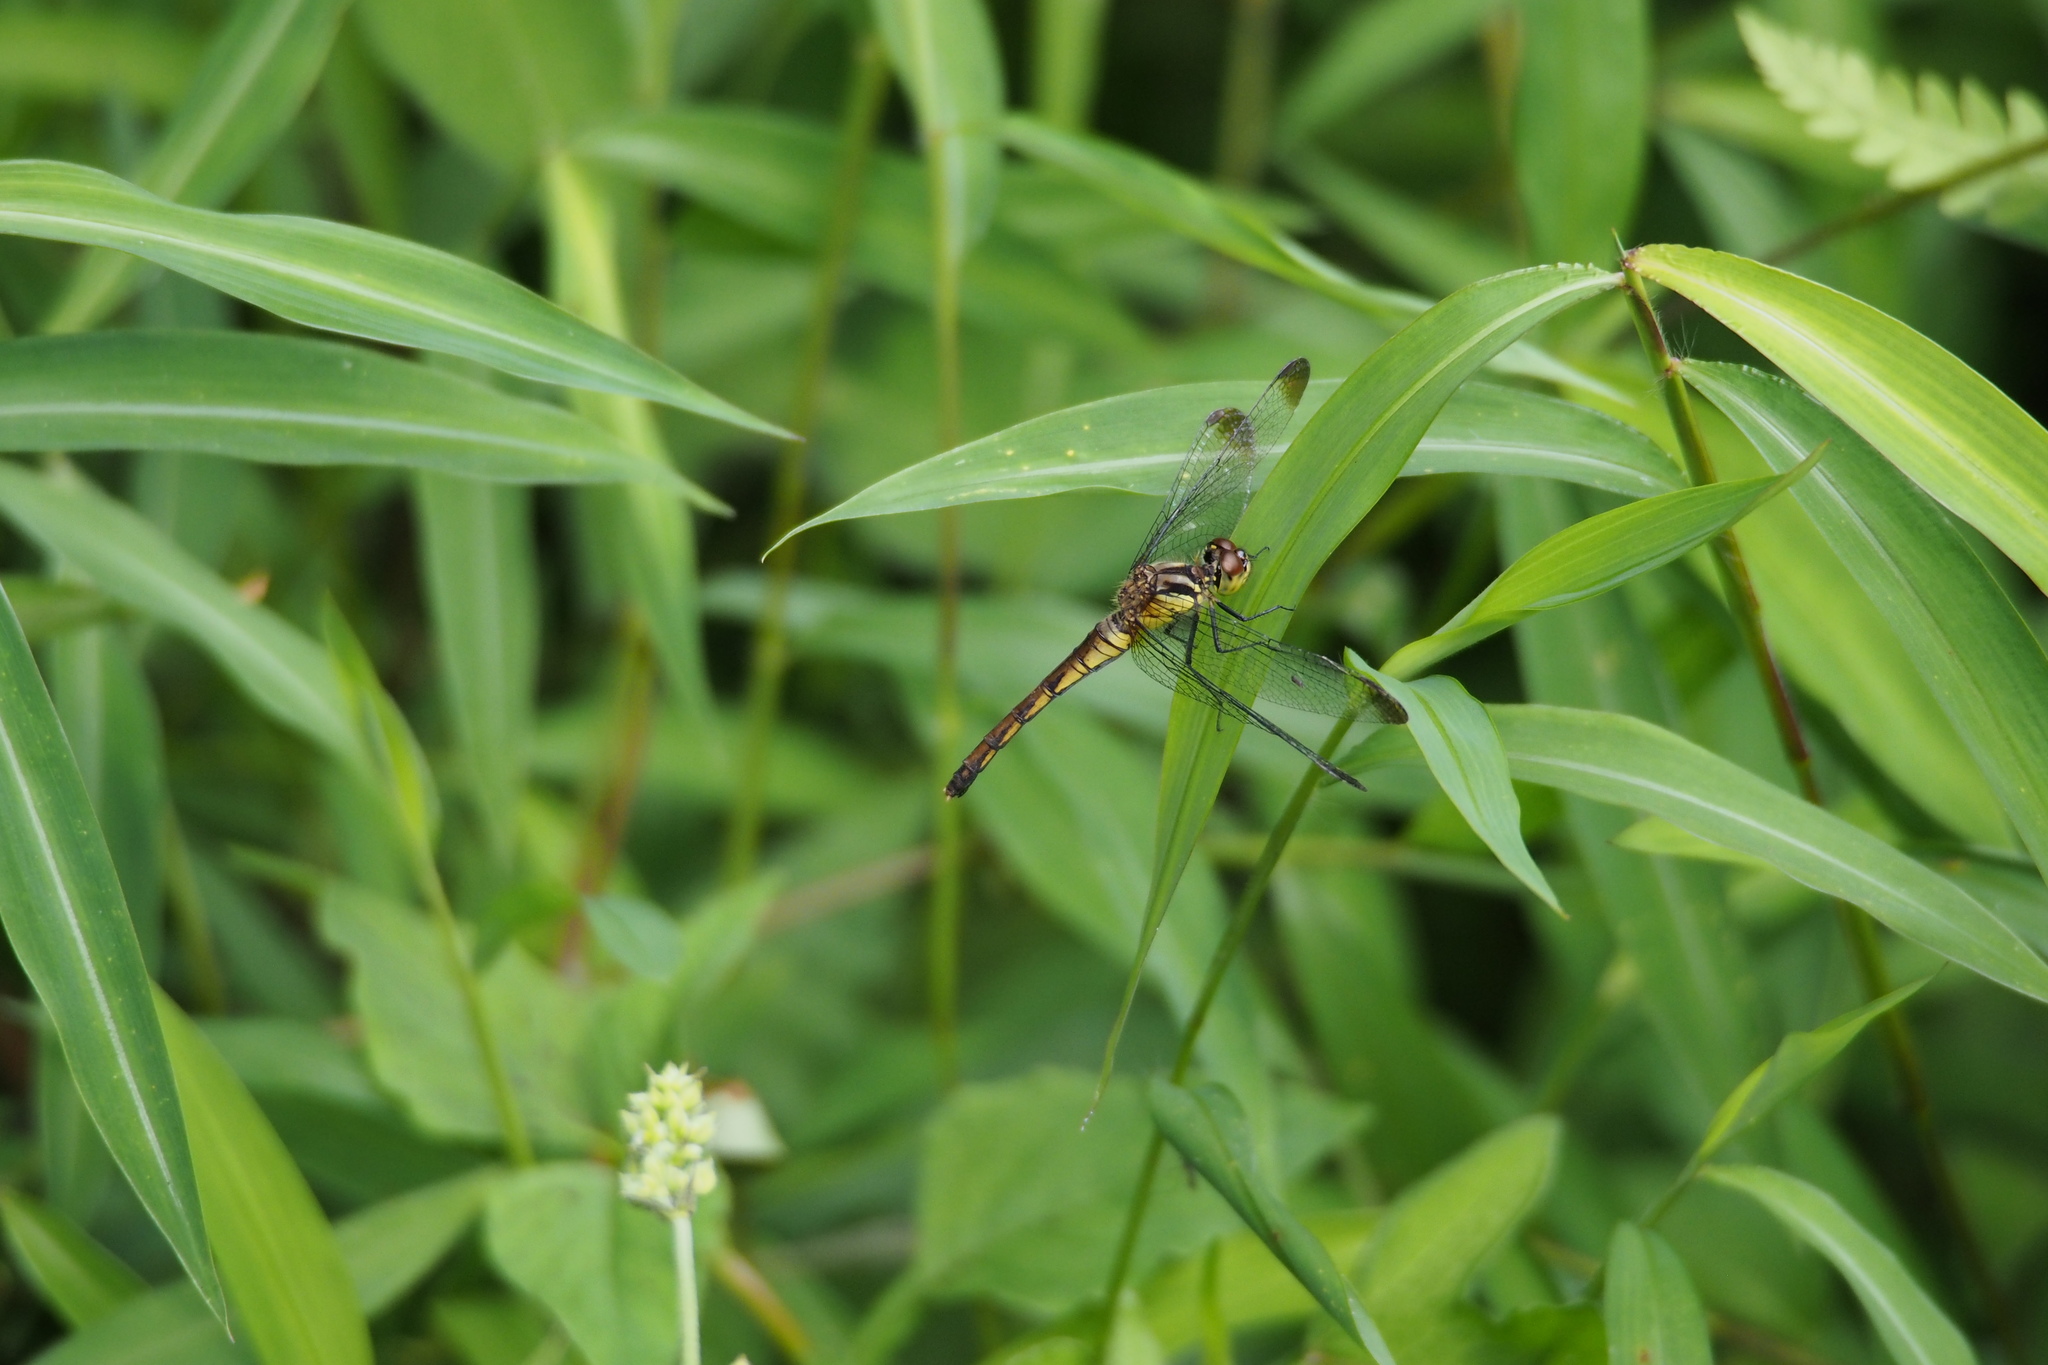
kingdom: Animalia
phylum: Arthropoda
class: Insecta
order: Odonata
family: Libellulidae
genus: Sympetrum
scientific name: Sympetrum eroticum
